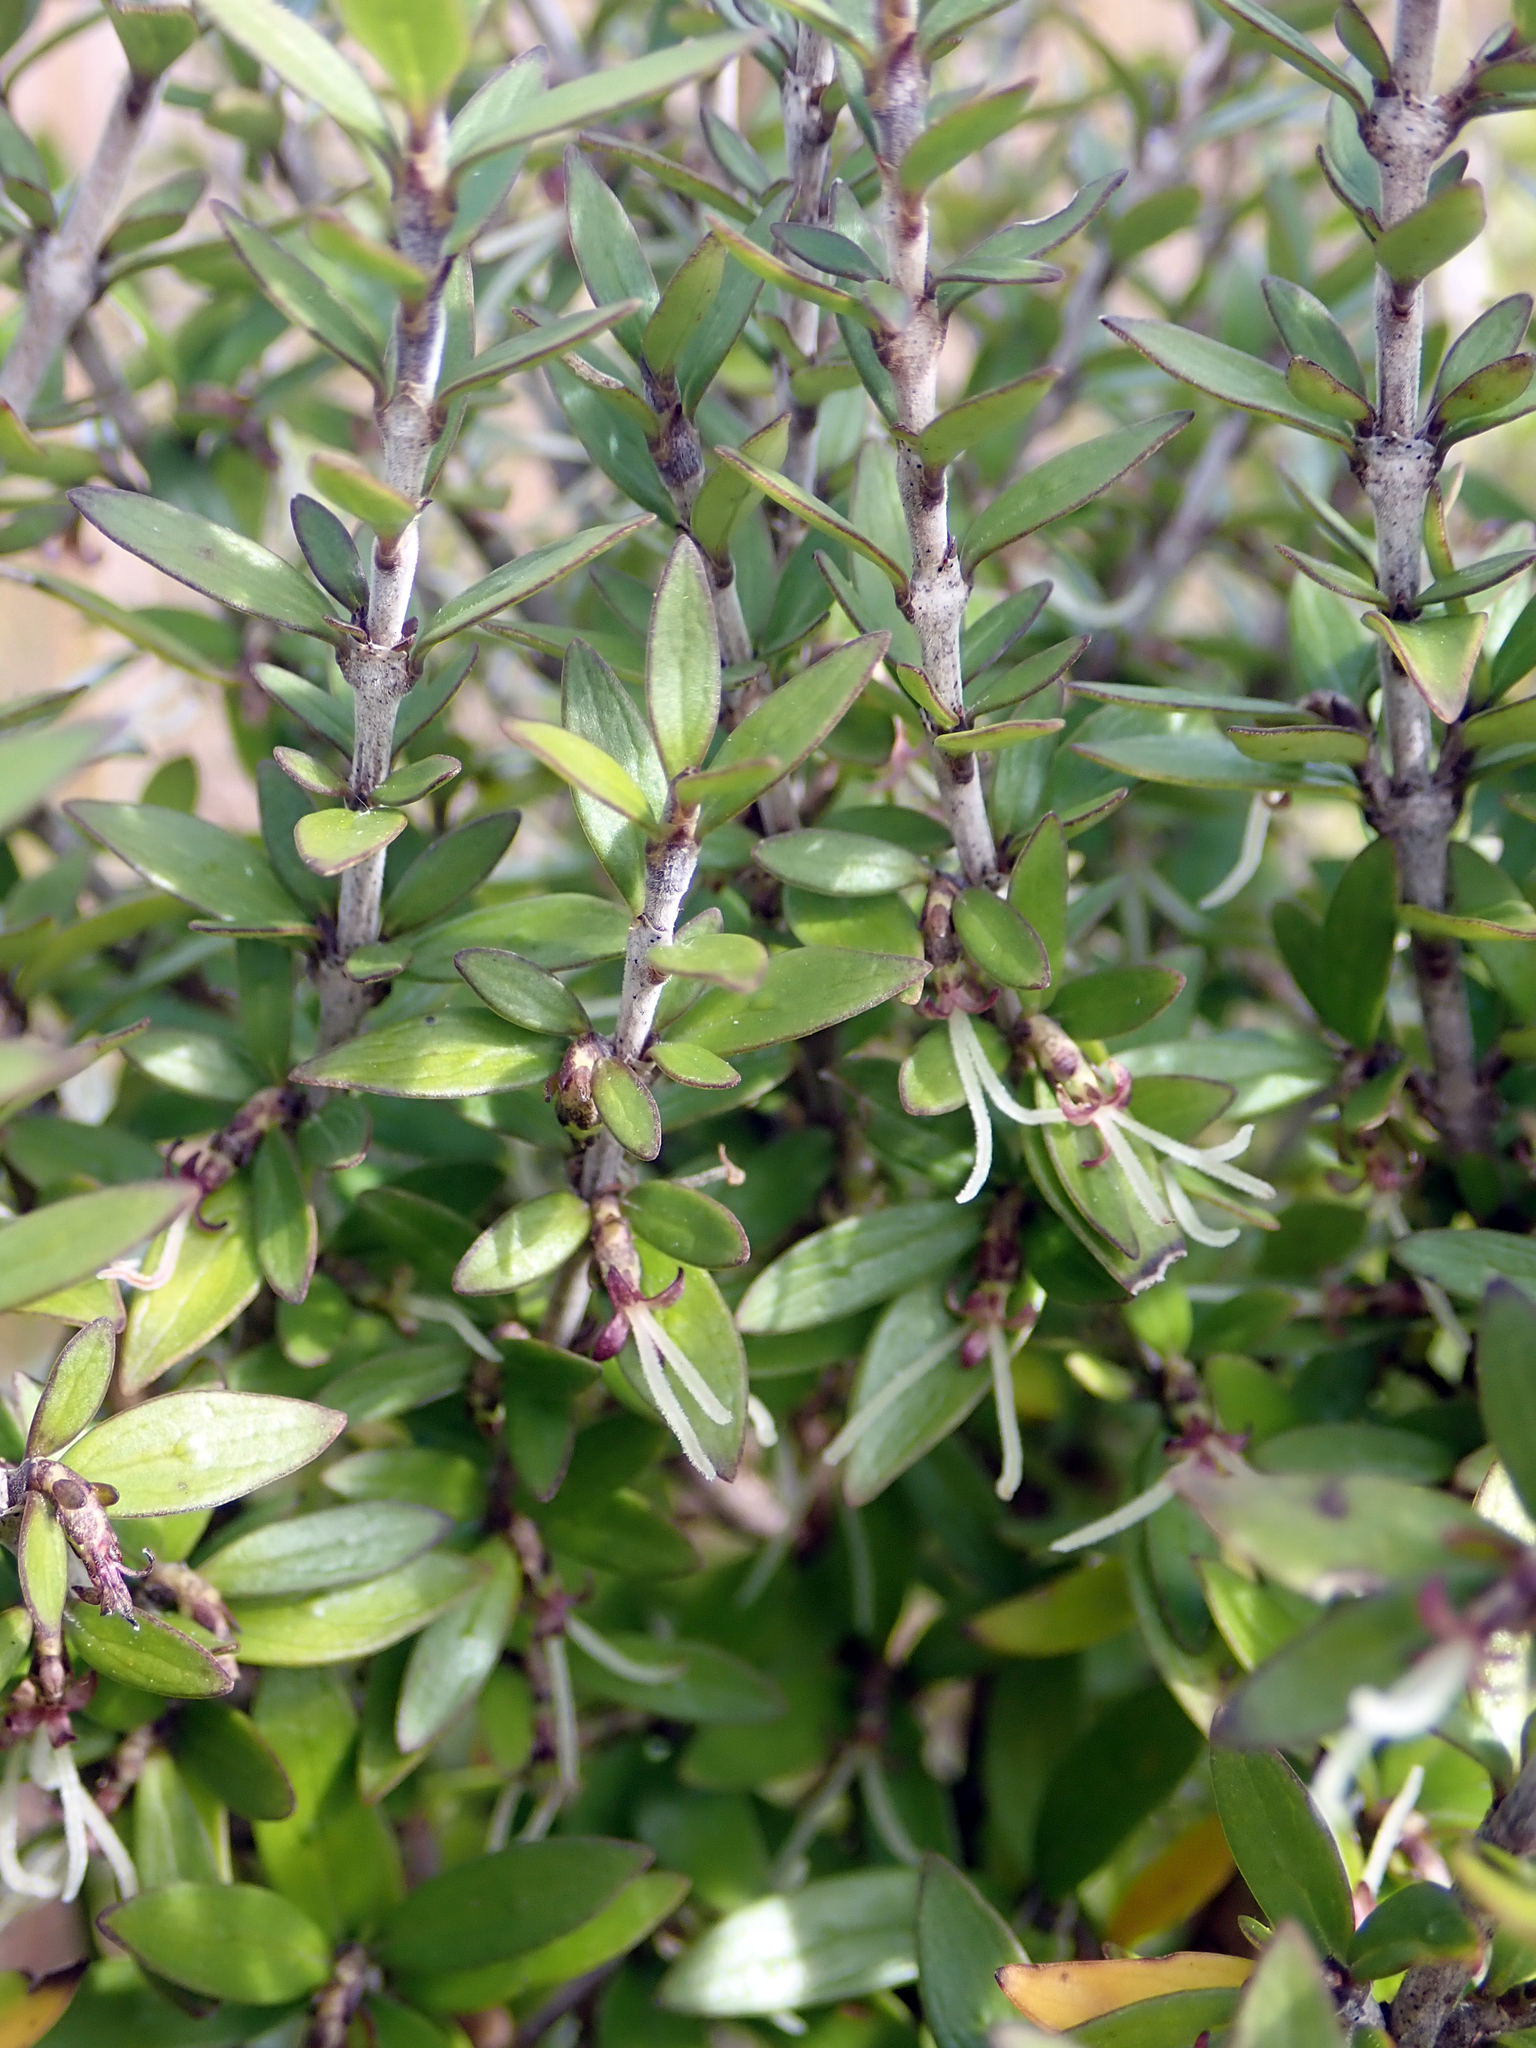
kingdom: Plantae
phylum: Tracheophyta
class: Magnoliopsida
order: Gentianales
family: Rubiaceae
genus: Coprosma
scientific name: Coprosma propinqua
